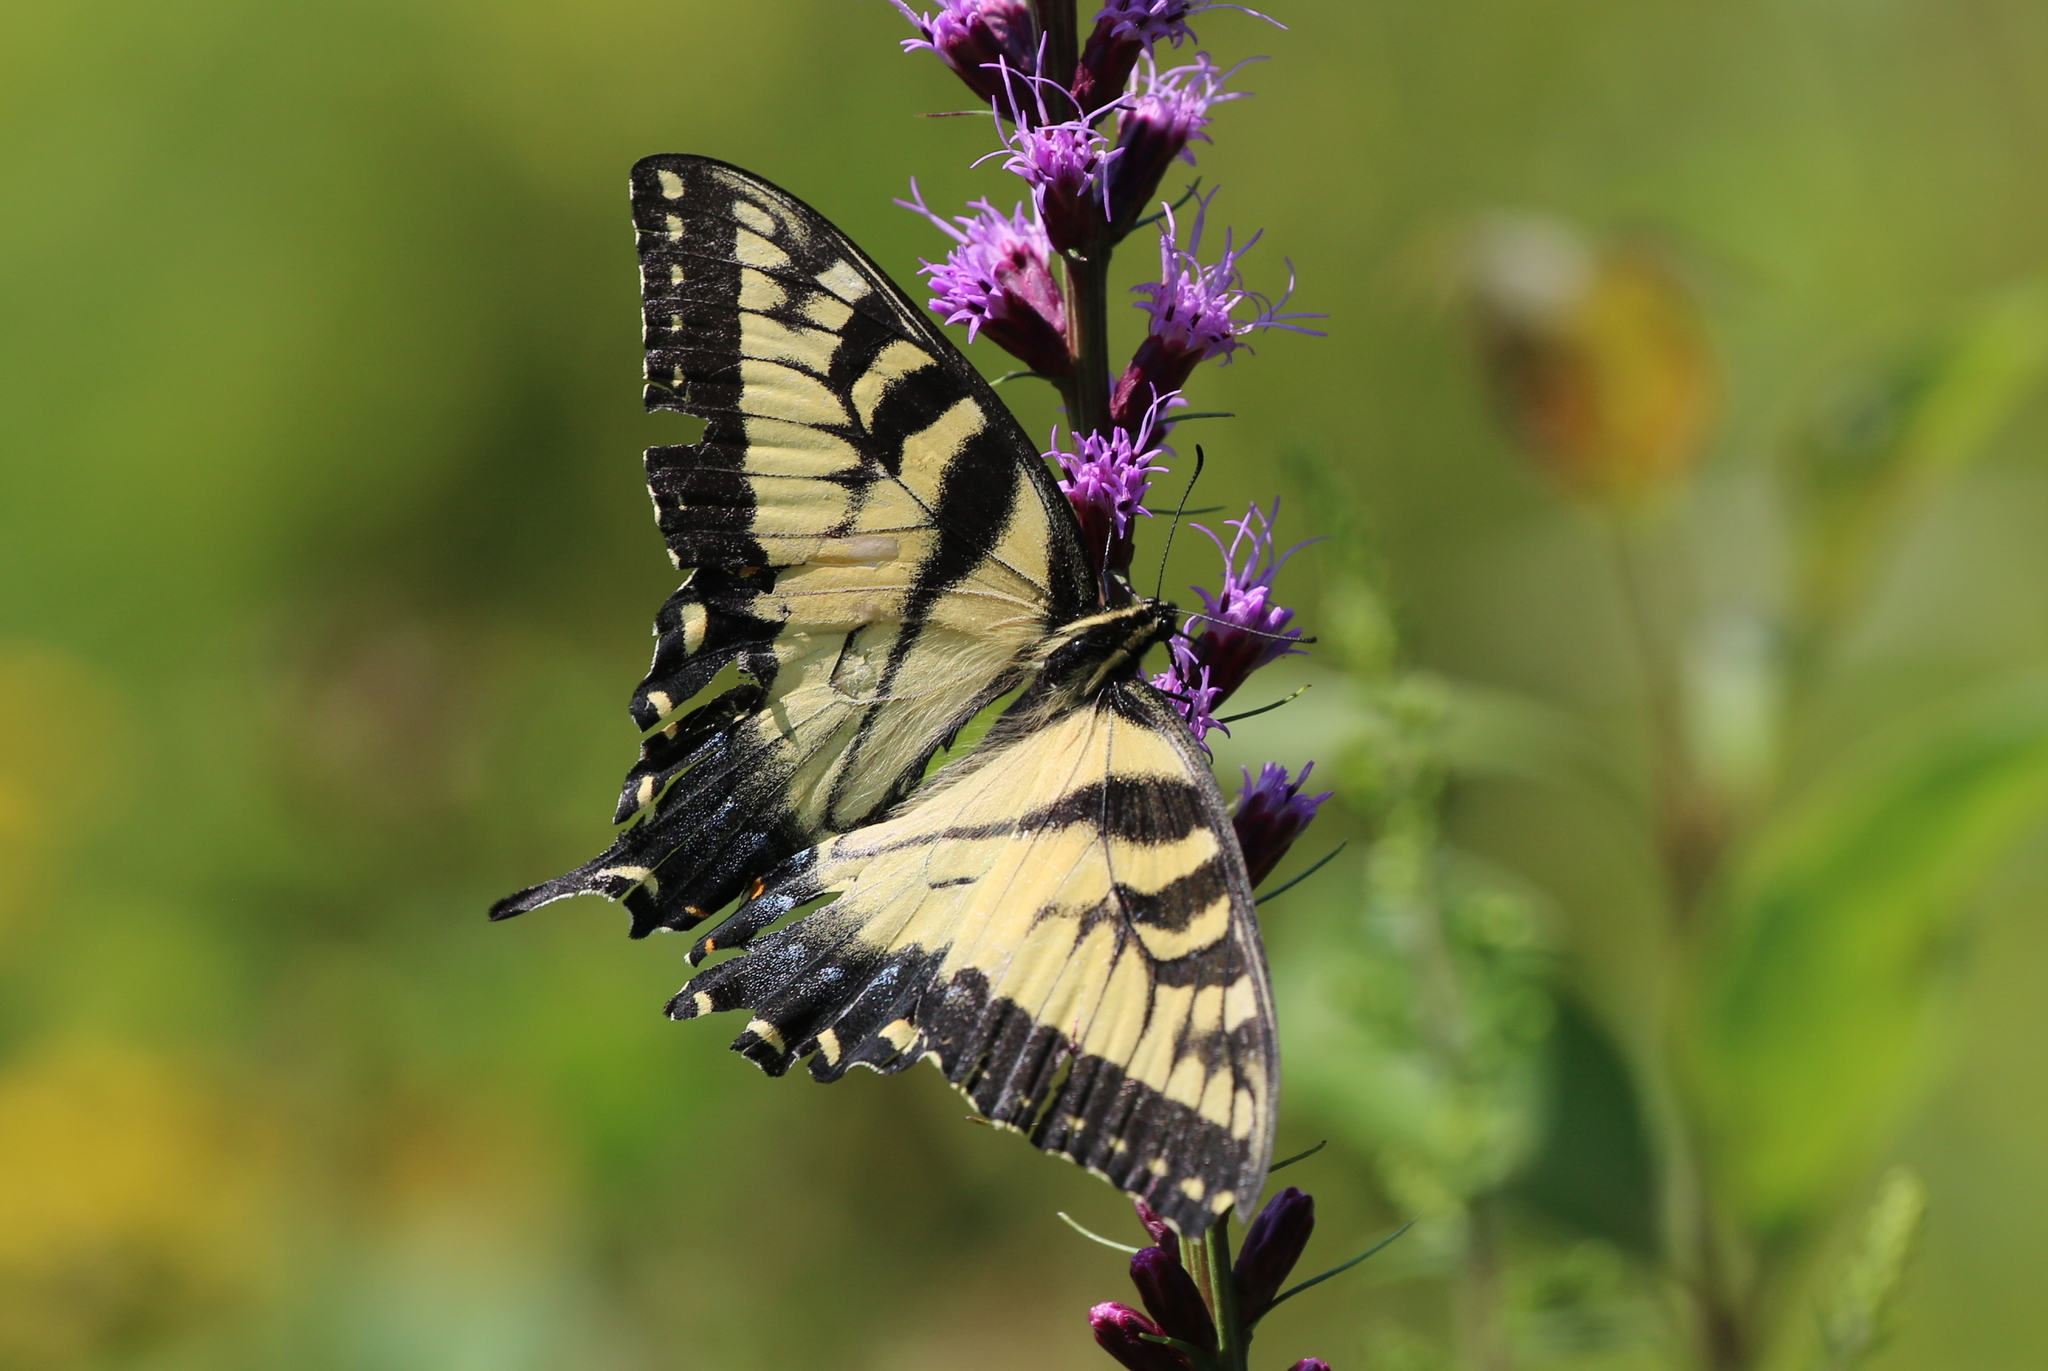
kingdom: Animalia
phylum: Arthropoda
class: Insecta
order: Lepidoptera
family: Papilionidae
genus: Papilio
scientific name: Papilio glaucus
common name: Tiger swallowtail
